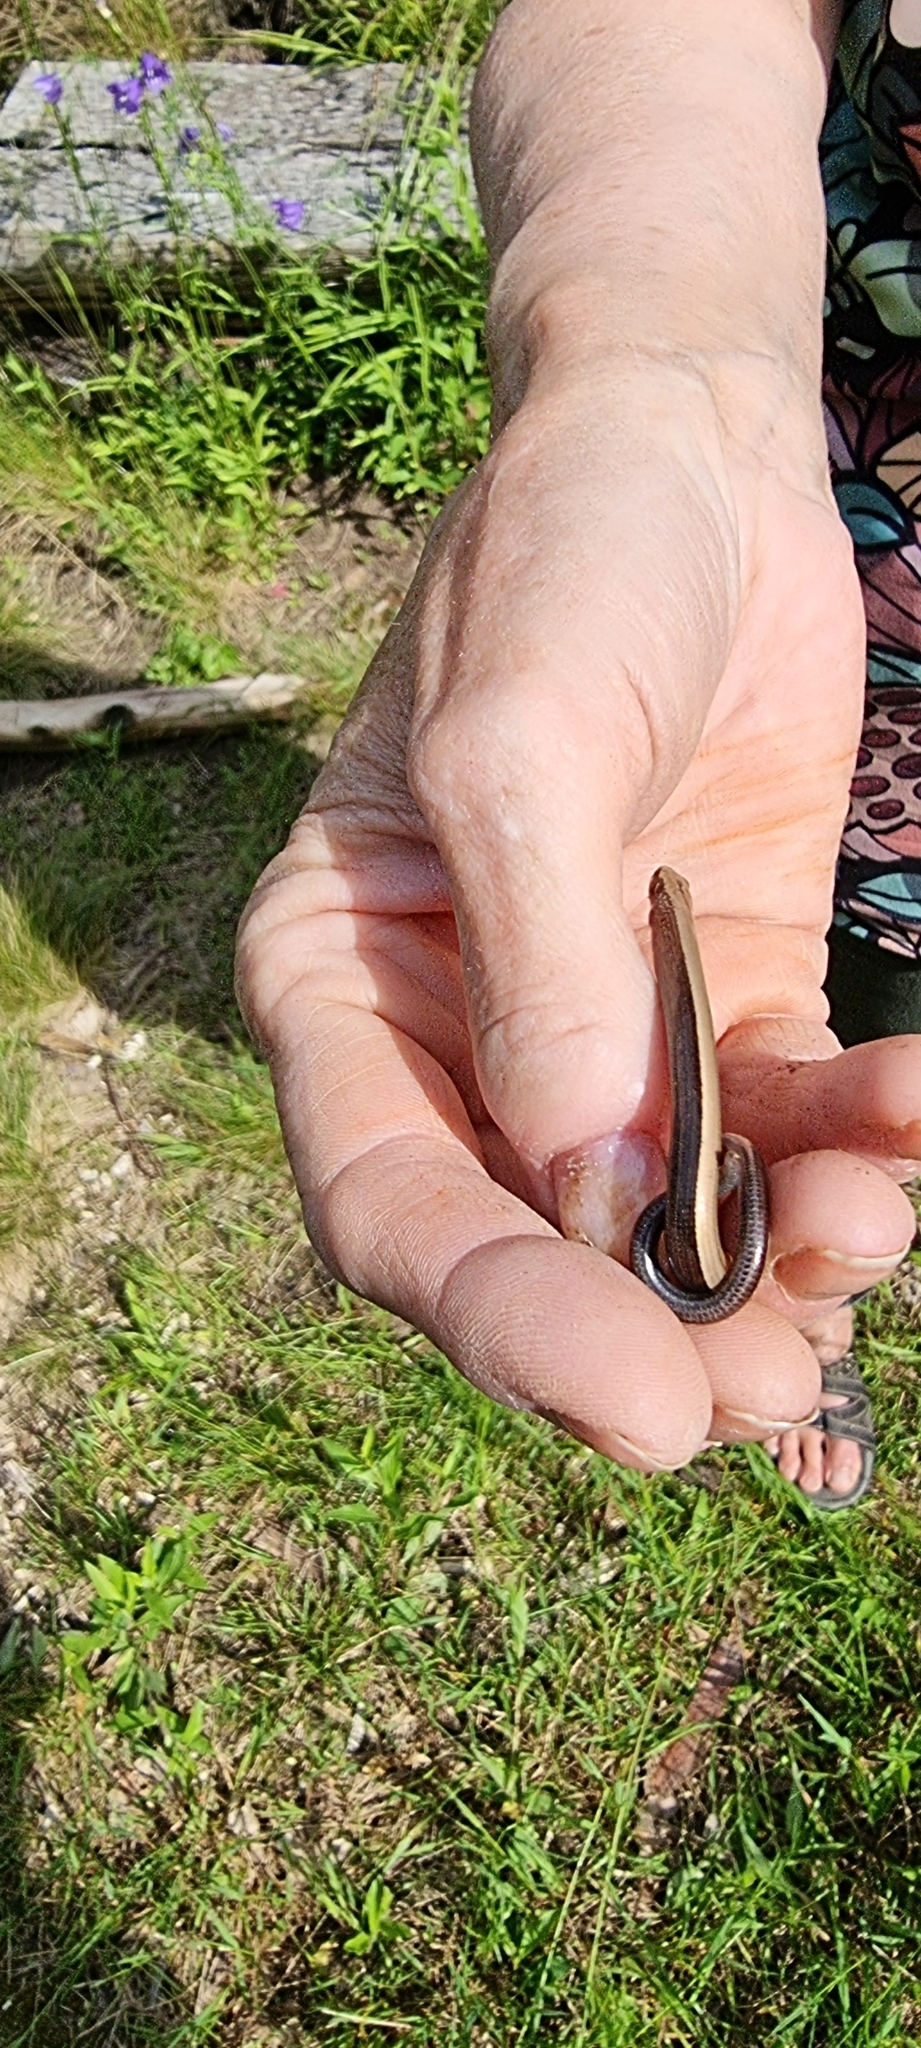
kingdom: Animalia
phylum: Chordata
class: Squamata
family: Anguidae
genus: Anguis
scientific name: Anguis fragilis
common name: Slow worm
